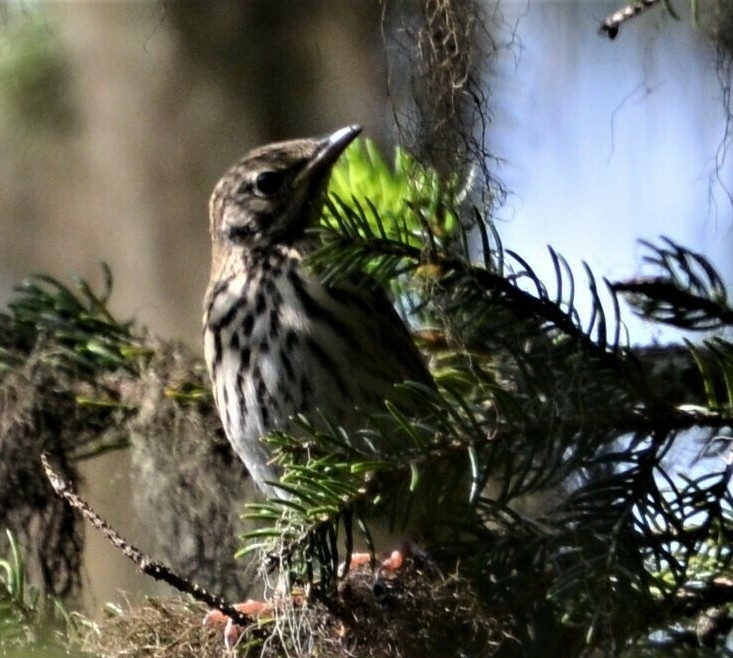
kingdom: Animalia
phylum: Chordata
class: Aves
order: Passeriformes
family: Motacillidae
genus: Anthus
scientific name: Anthus trivialis
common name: Tree pipit
